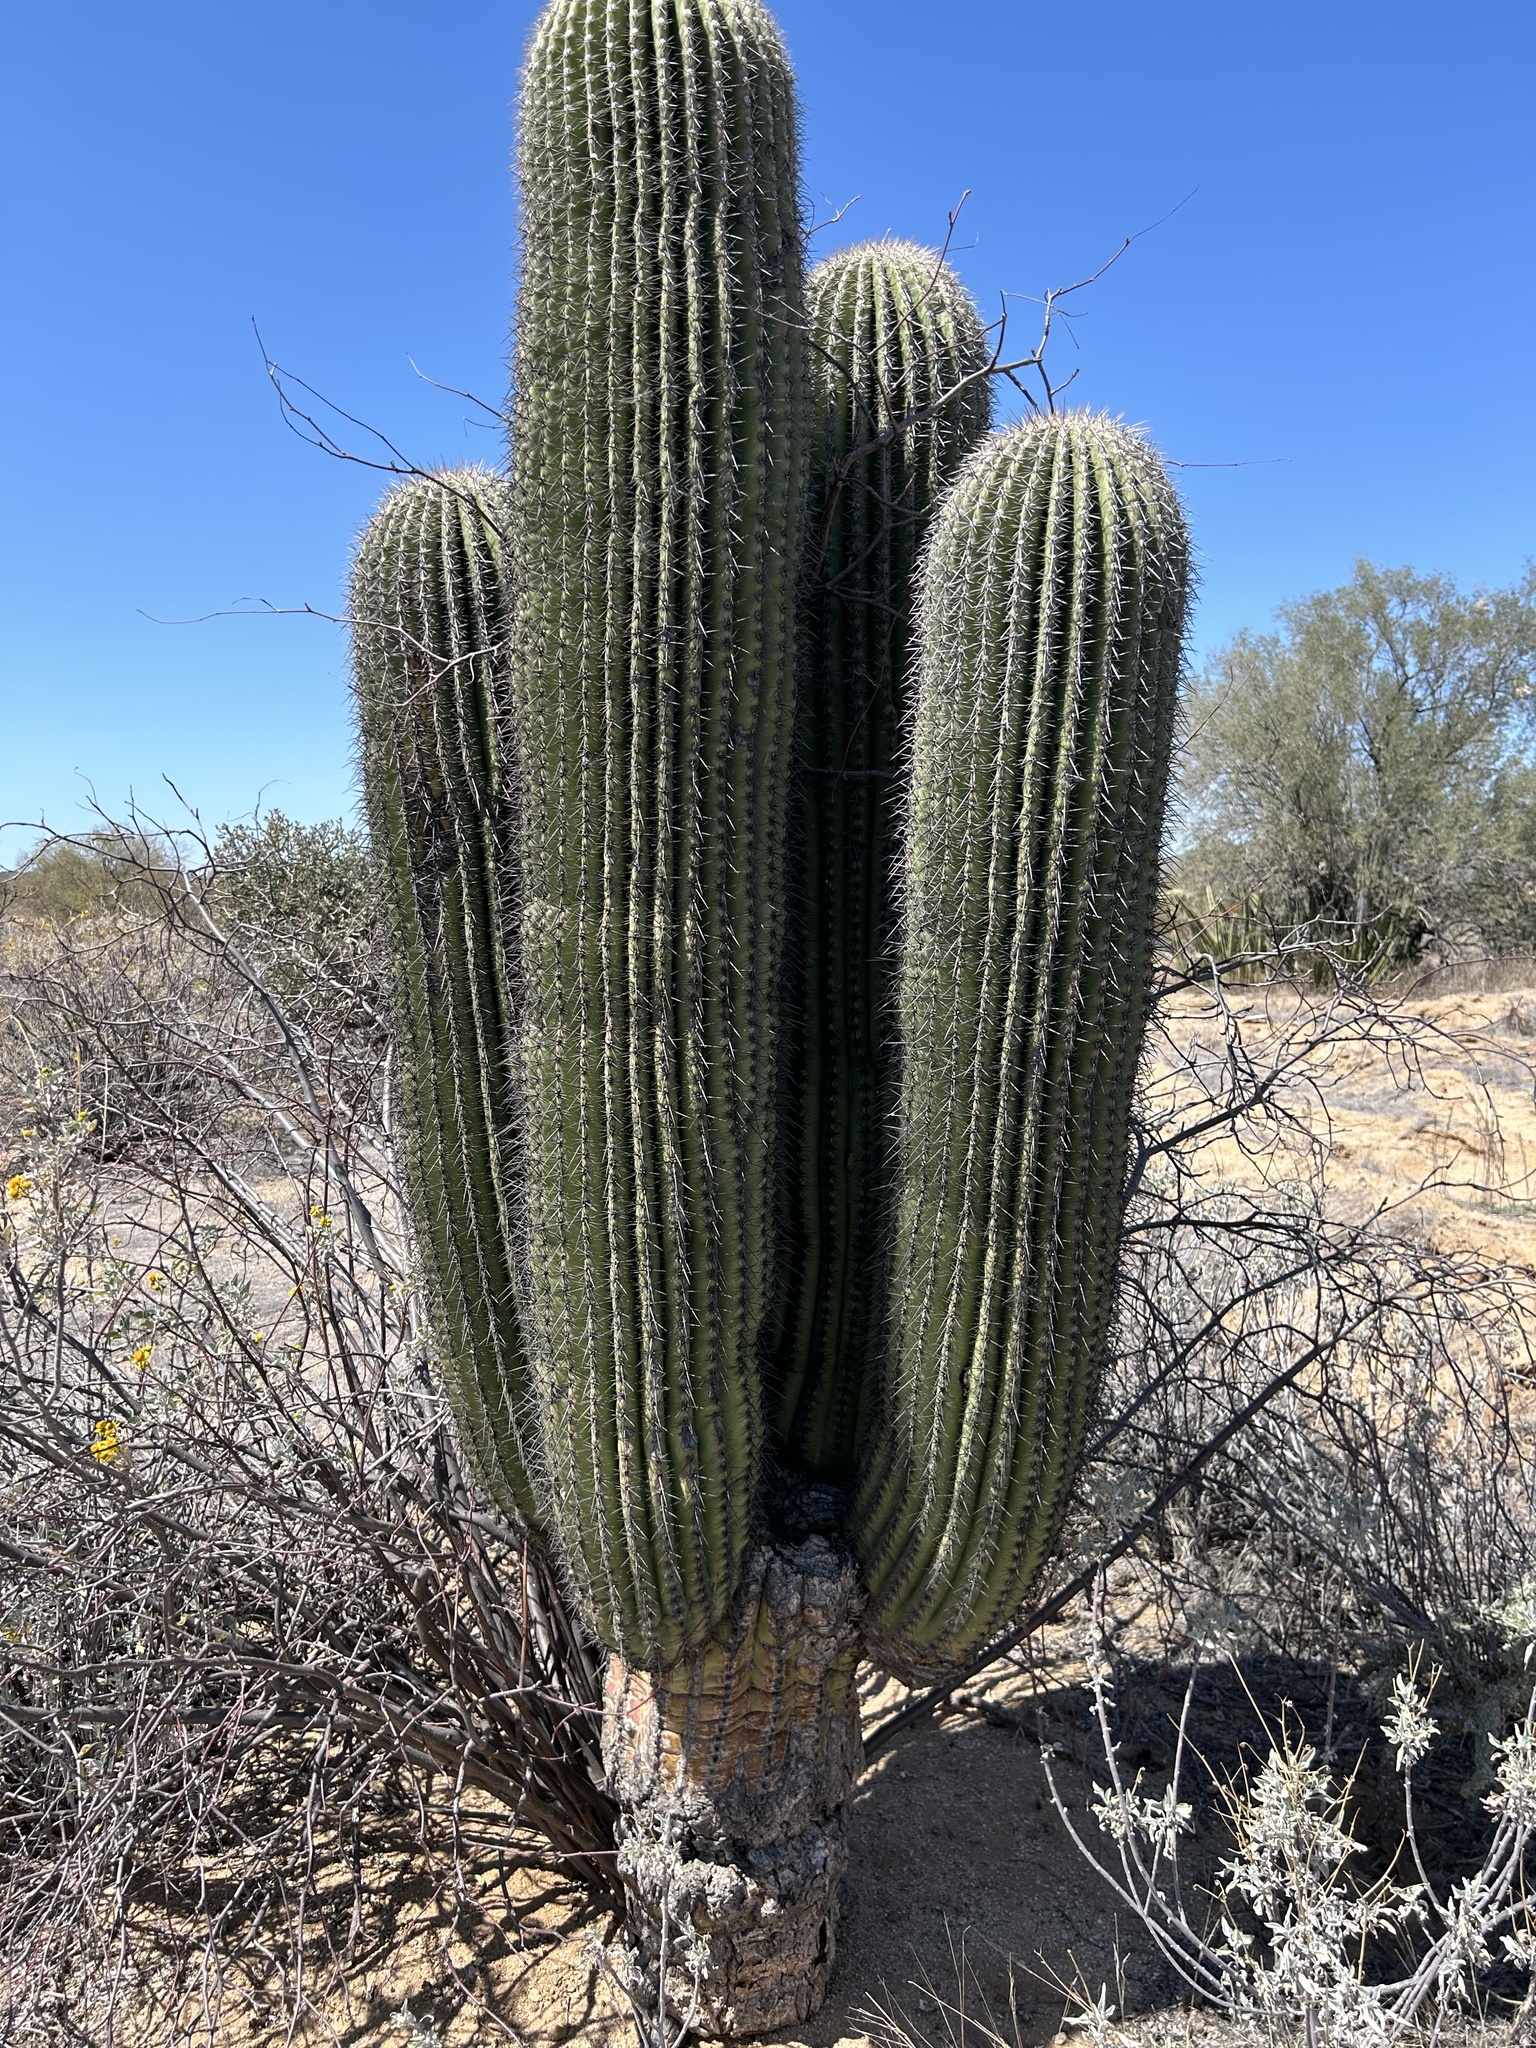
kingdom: Plantae
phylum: Tracheophyta
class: Magnoliopsida
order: Caryophyllales
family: Cactaceae
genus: Carnegiea
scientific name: Carnegiea gigantea
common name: Saguaro
